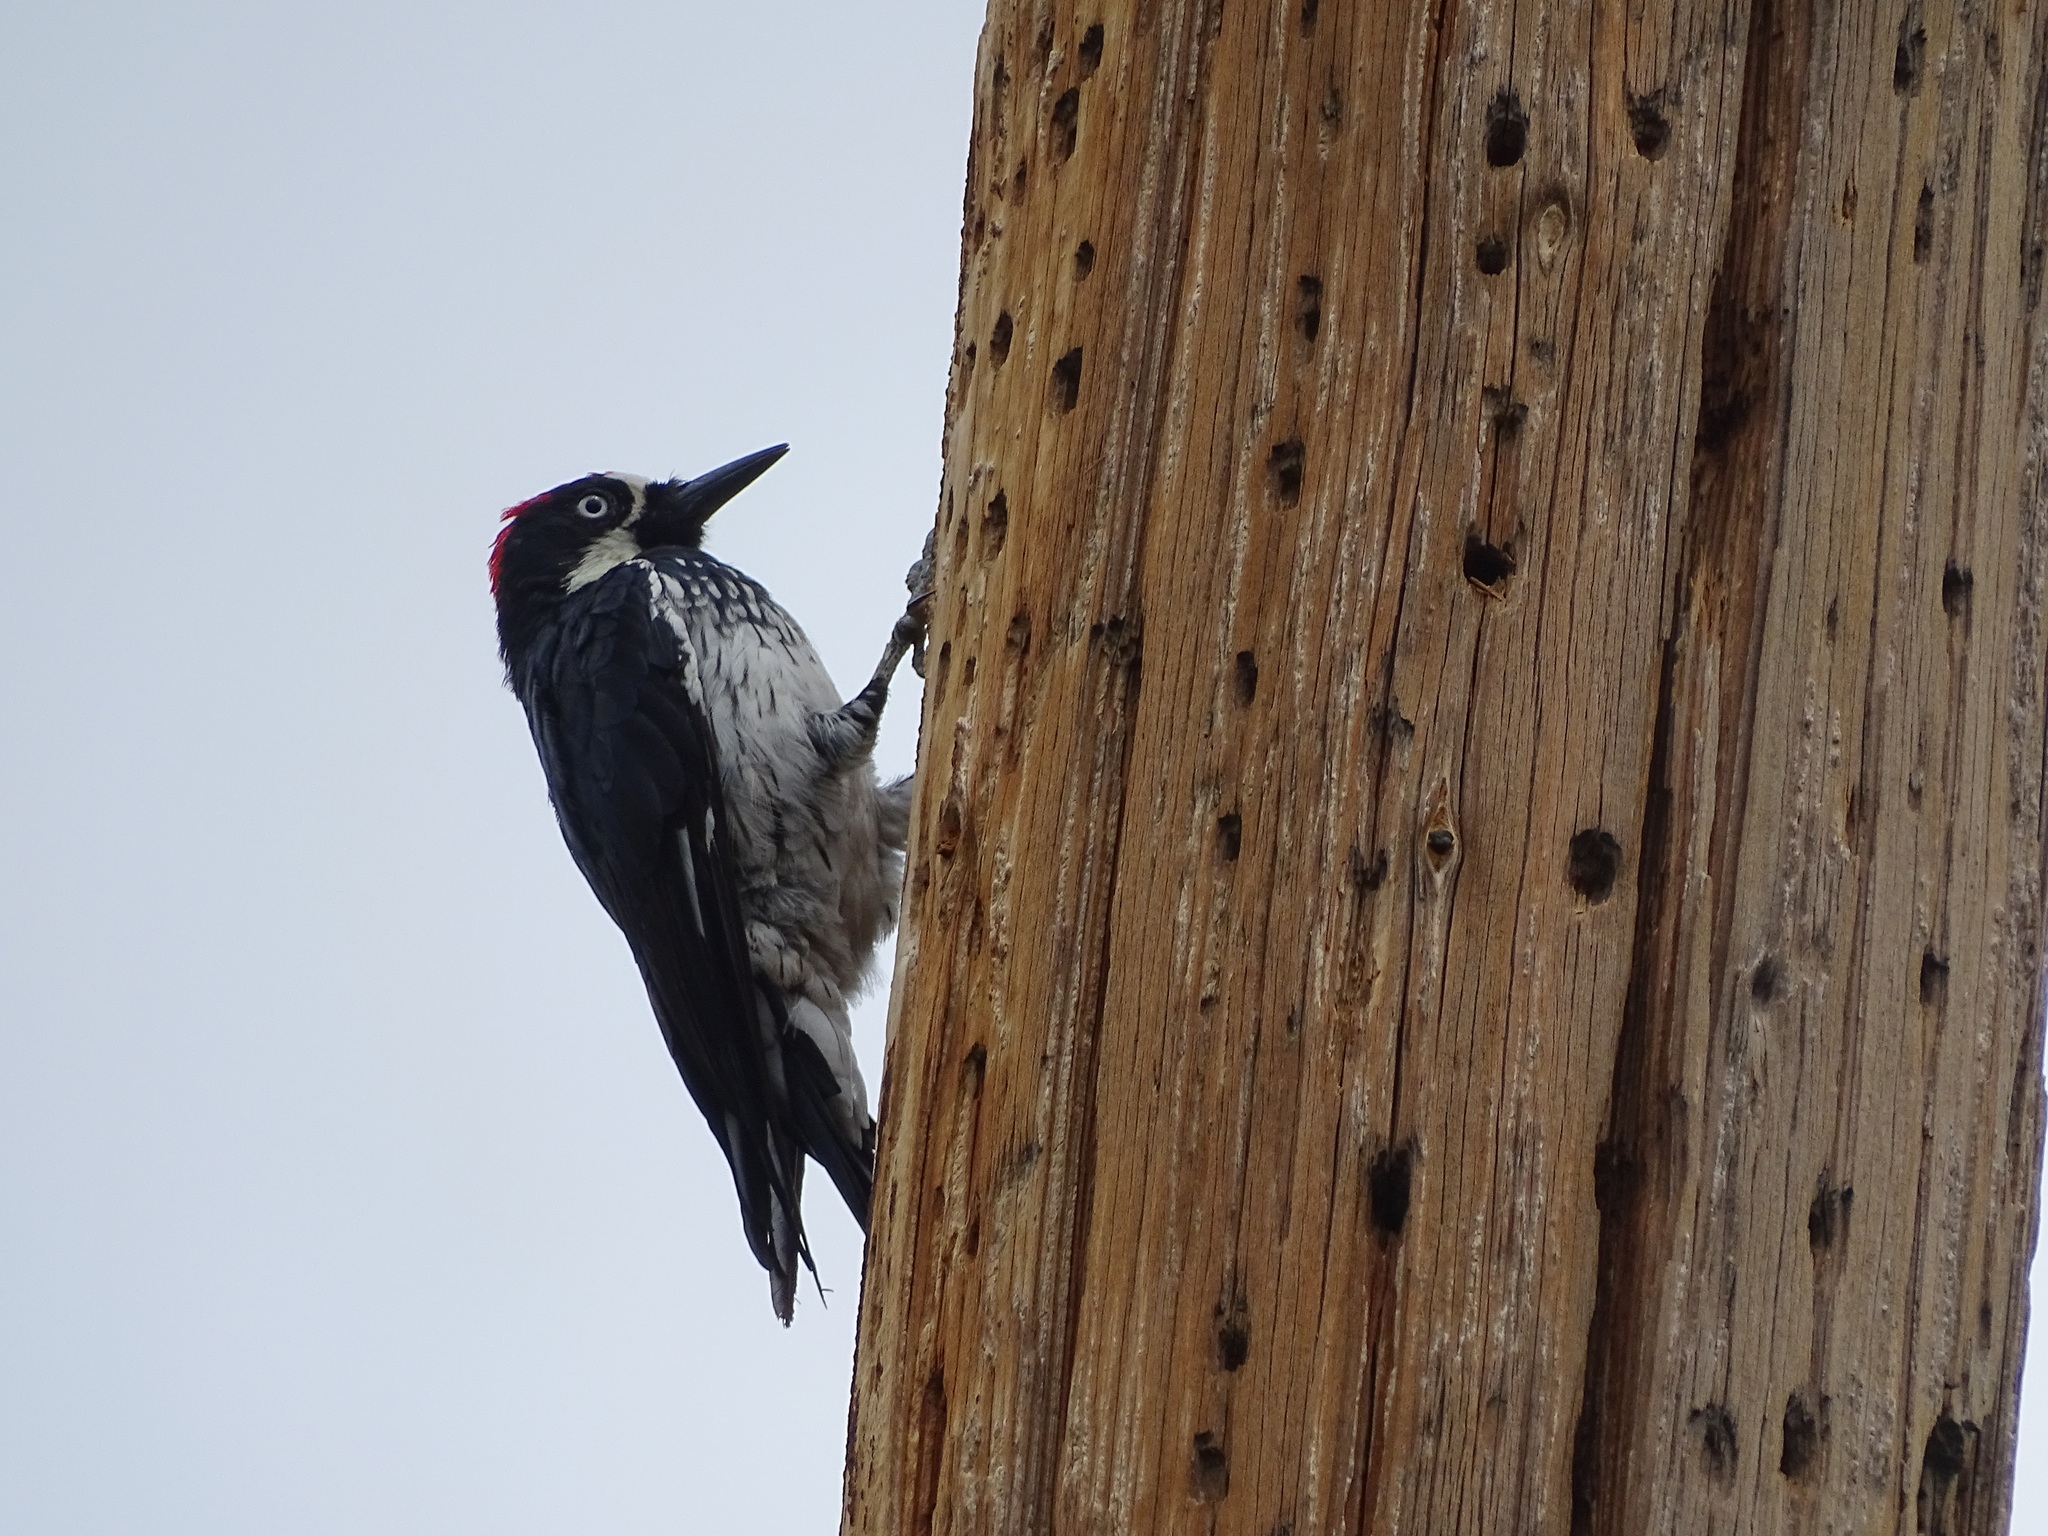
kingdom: Animalia
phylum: Chordata
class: Aves
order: Piciformes
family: Picidae
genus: Melanerpes
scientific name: Melanerpes formicivorus
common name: Acorn woodpecker
